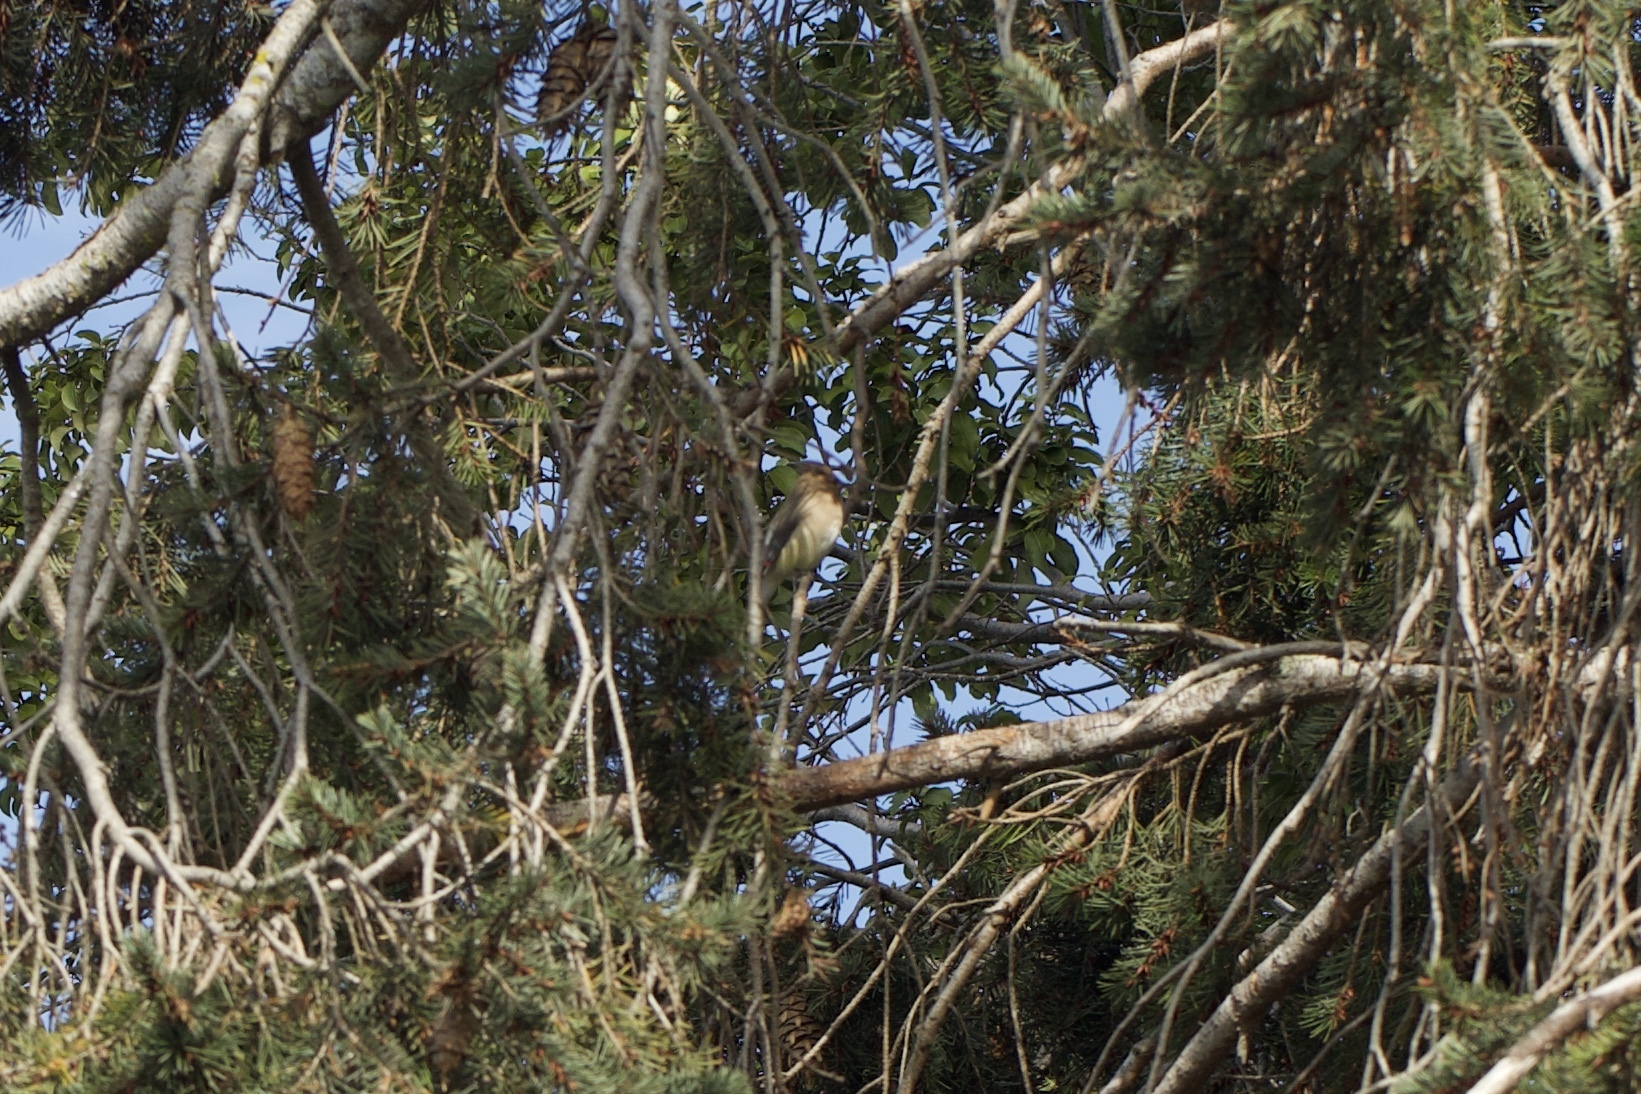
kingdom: Animalia
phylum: Chordata
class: Aves
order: Passeriformes
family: Bombycillidae
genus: Bombycilla
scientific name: Bombycilla cedrorum
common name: Cedar waxwing
